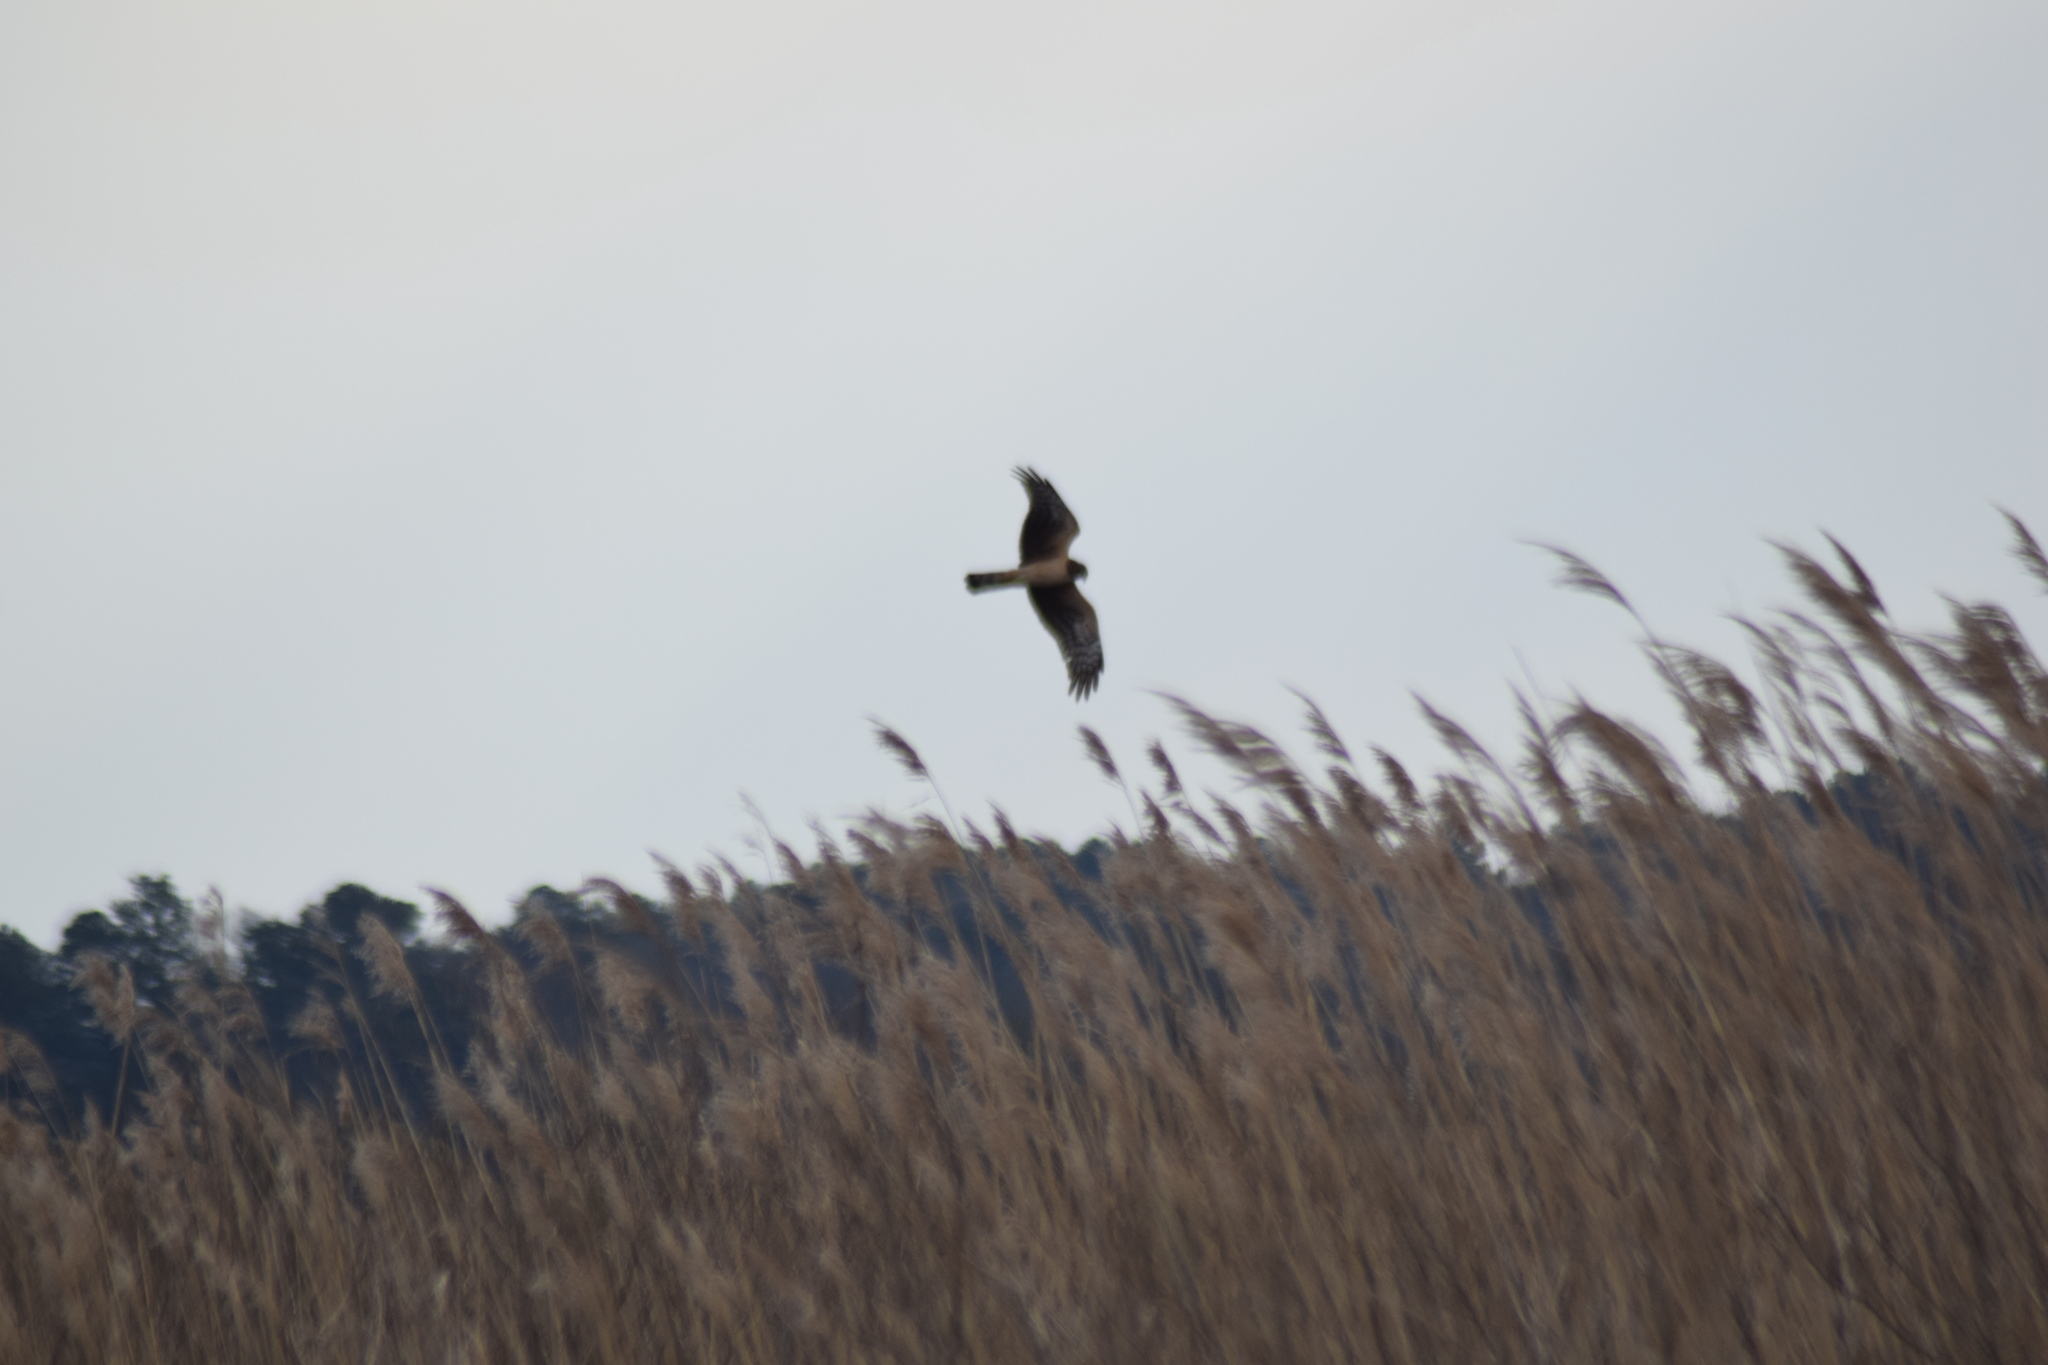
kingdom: Animalia
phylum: Chordata
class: Aves
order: Accipitriformes
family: Accipitridae
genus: Circus
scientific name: Circus cyaneus
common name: Hen harrier
